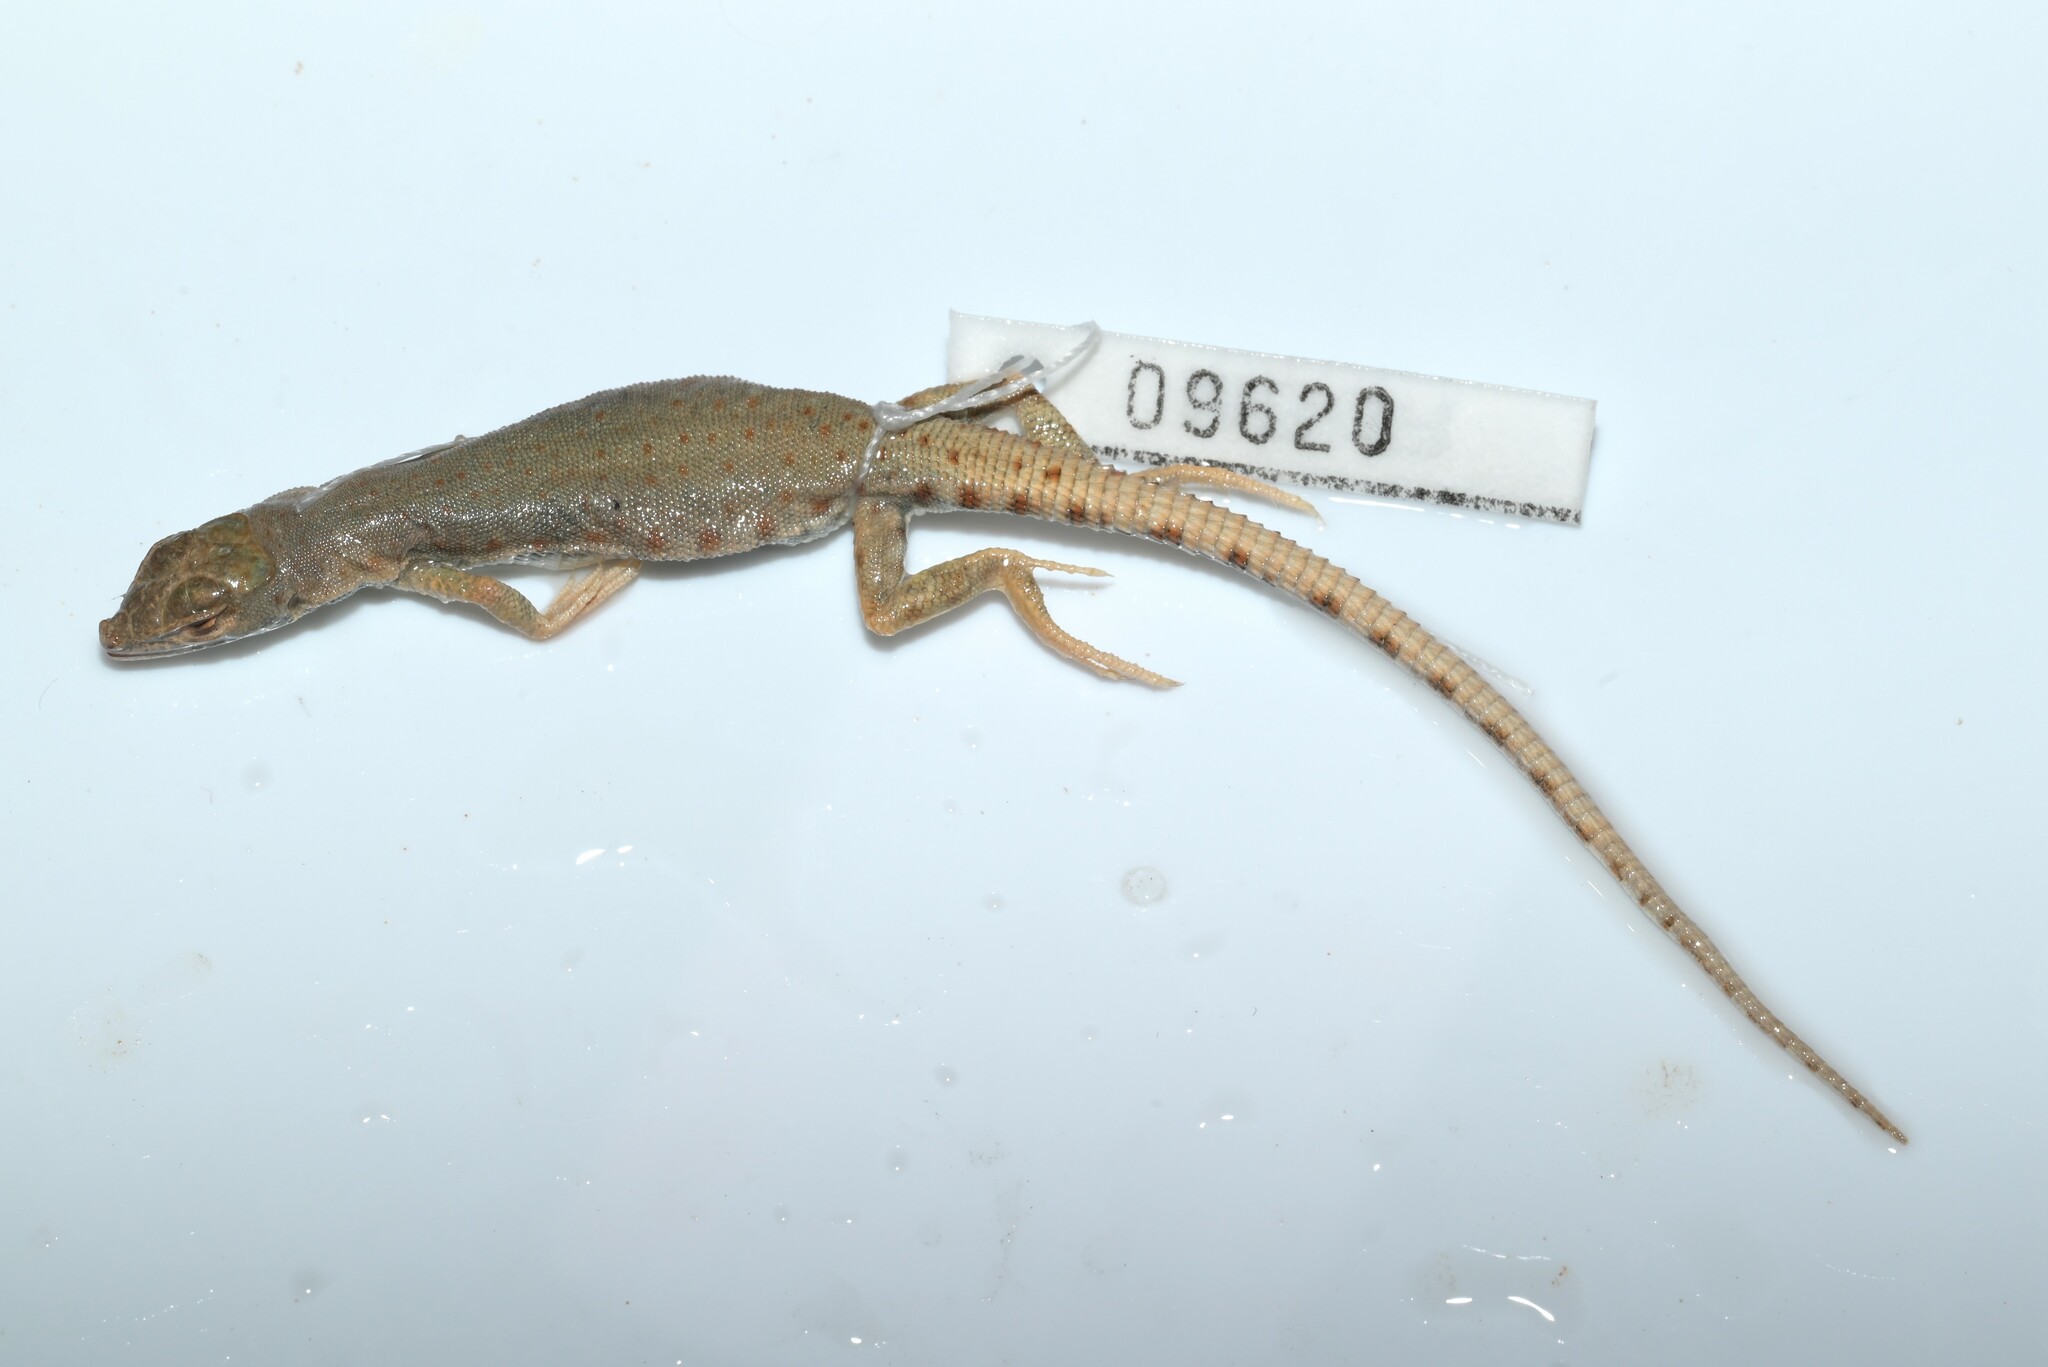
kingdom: Animalia
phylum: Chordata
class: Squamata
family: Lacertidae
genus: Mesalina
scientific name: Mesalina brevirostris
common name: Blanford's short-nosed desert lizard
